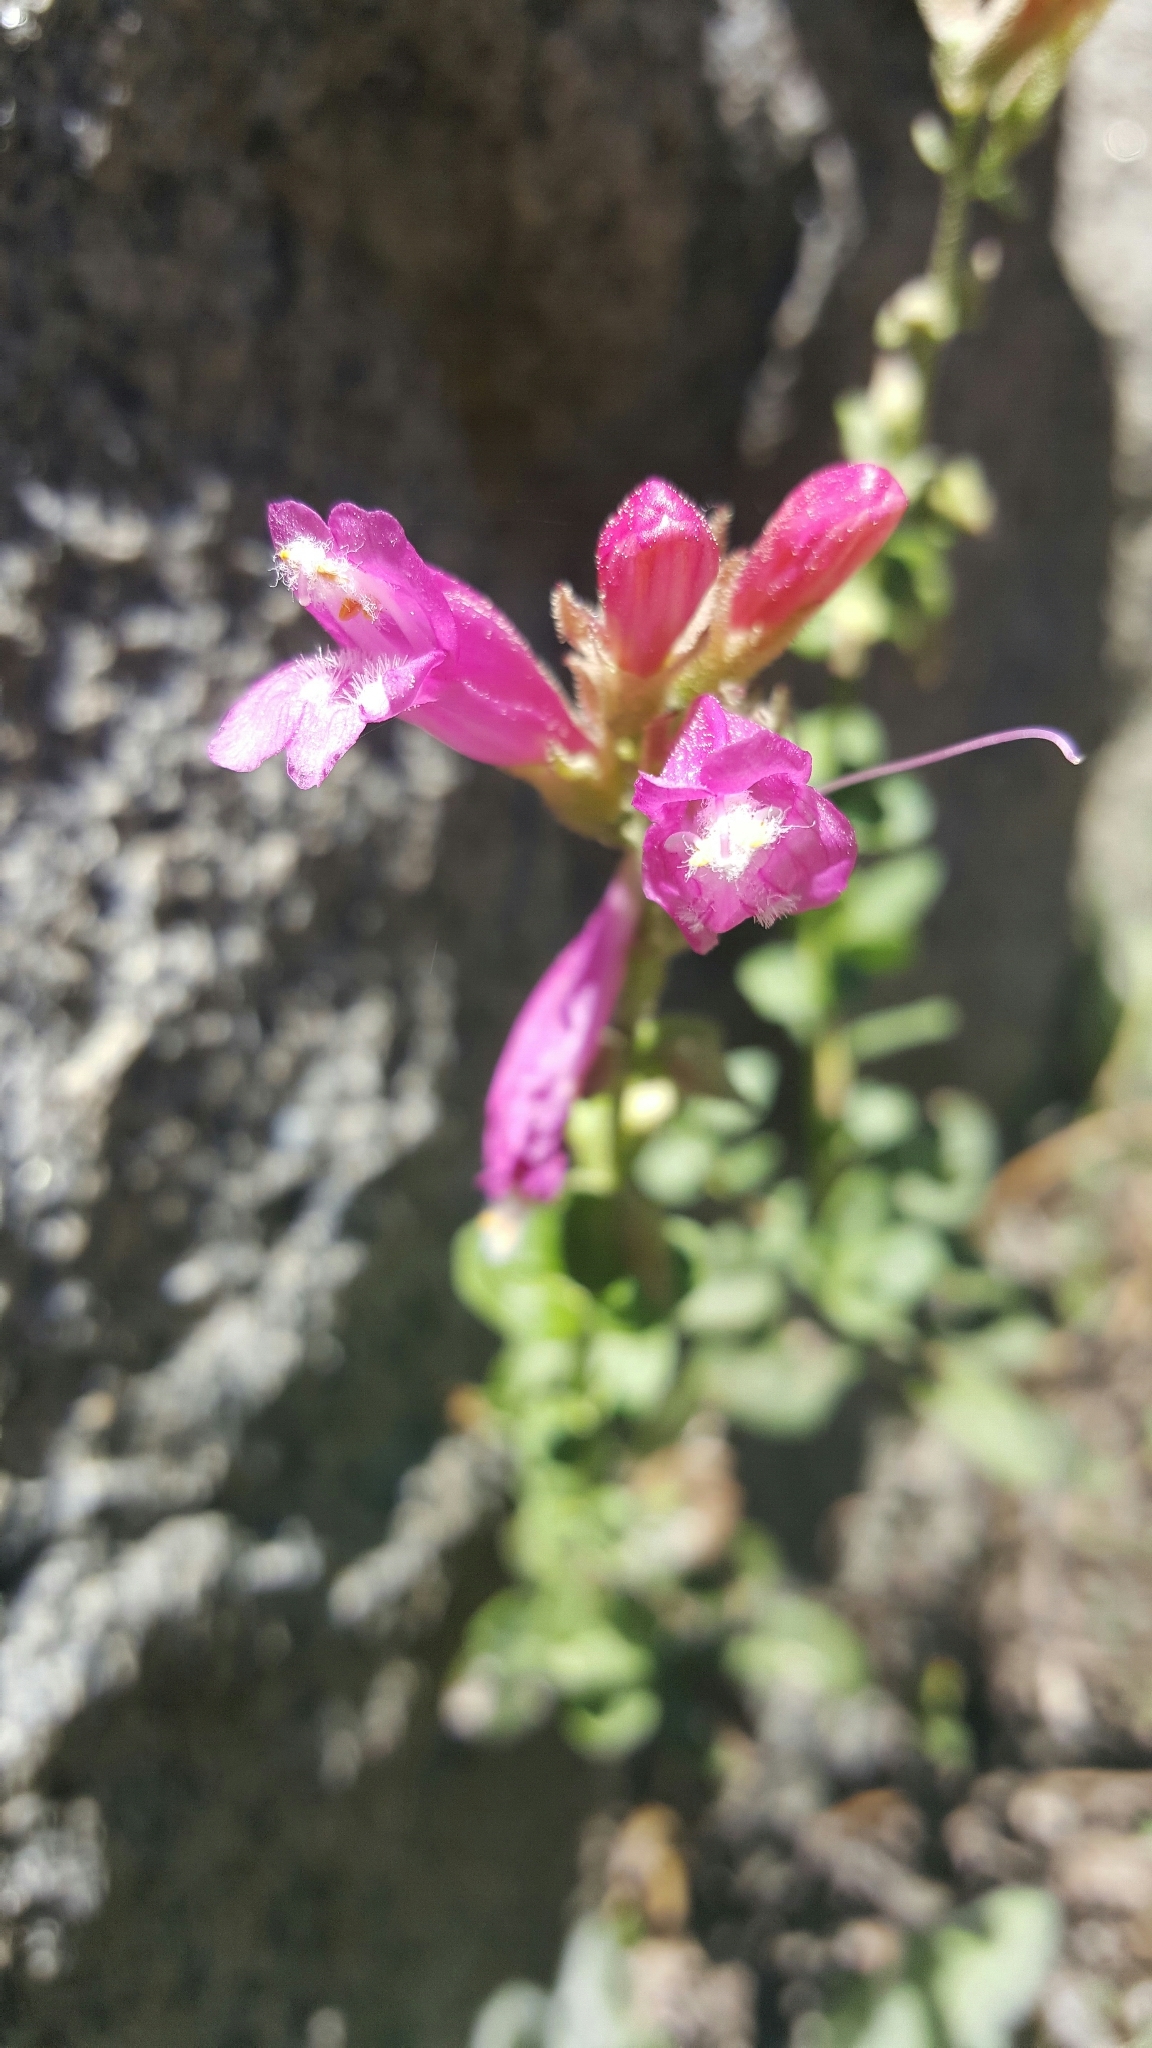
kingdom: Plantae
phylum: Tracheophyta
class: Magnoliopsida
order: Lamiales
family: Plantaginaceae
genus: Penstemon
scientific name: Penstemon newberryi
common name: Mountain-pride
